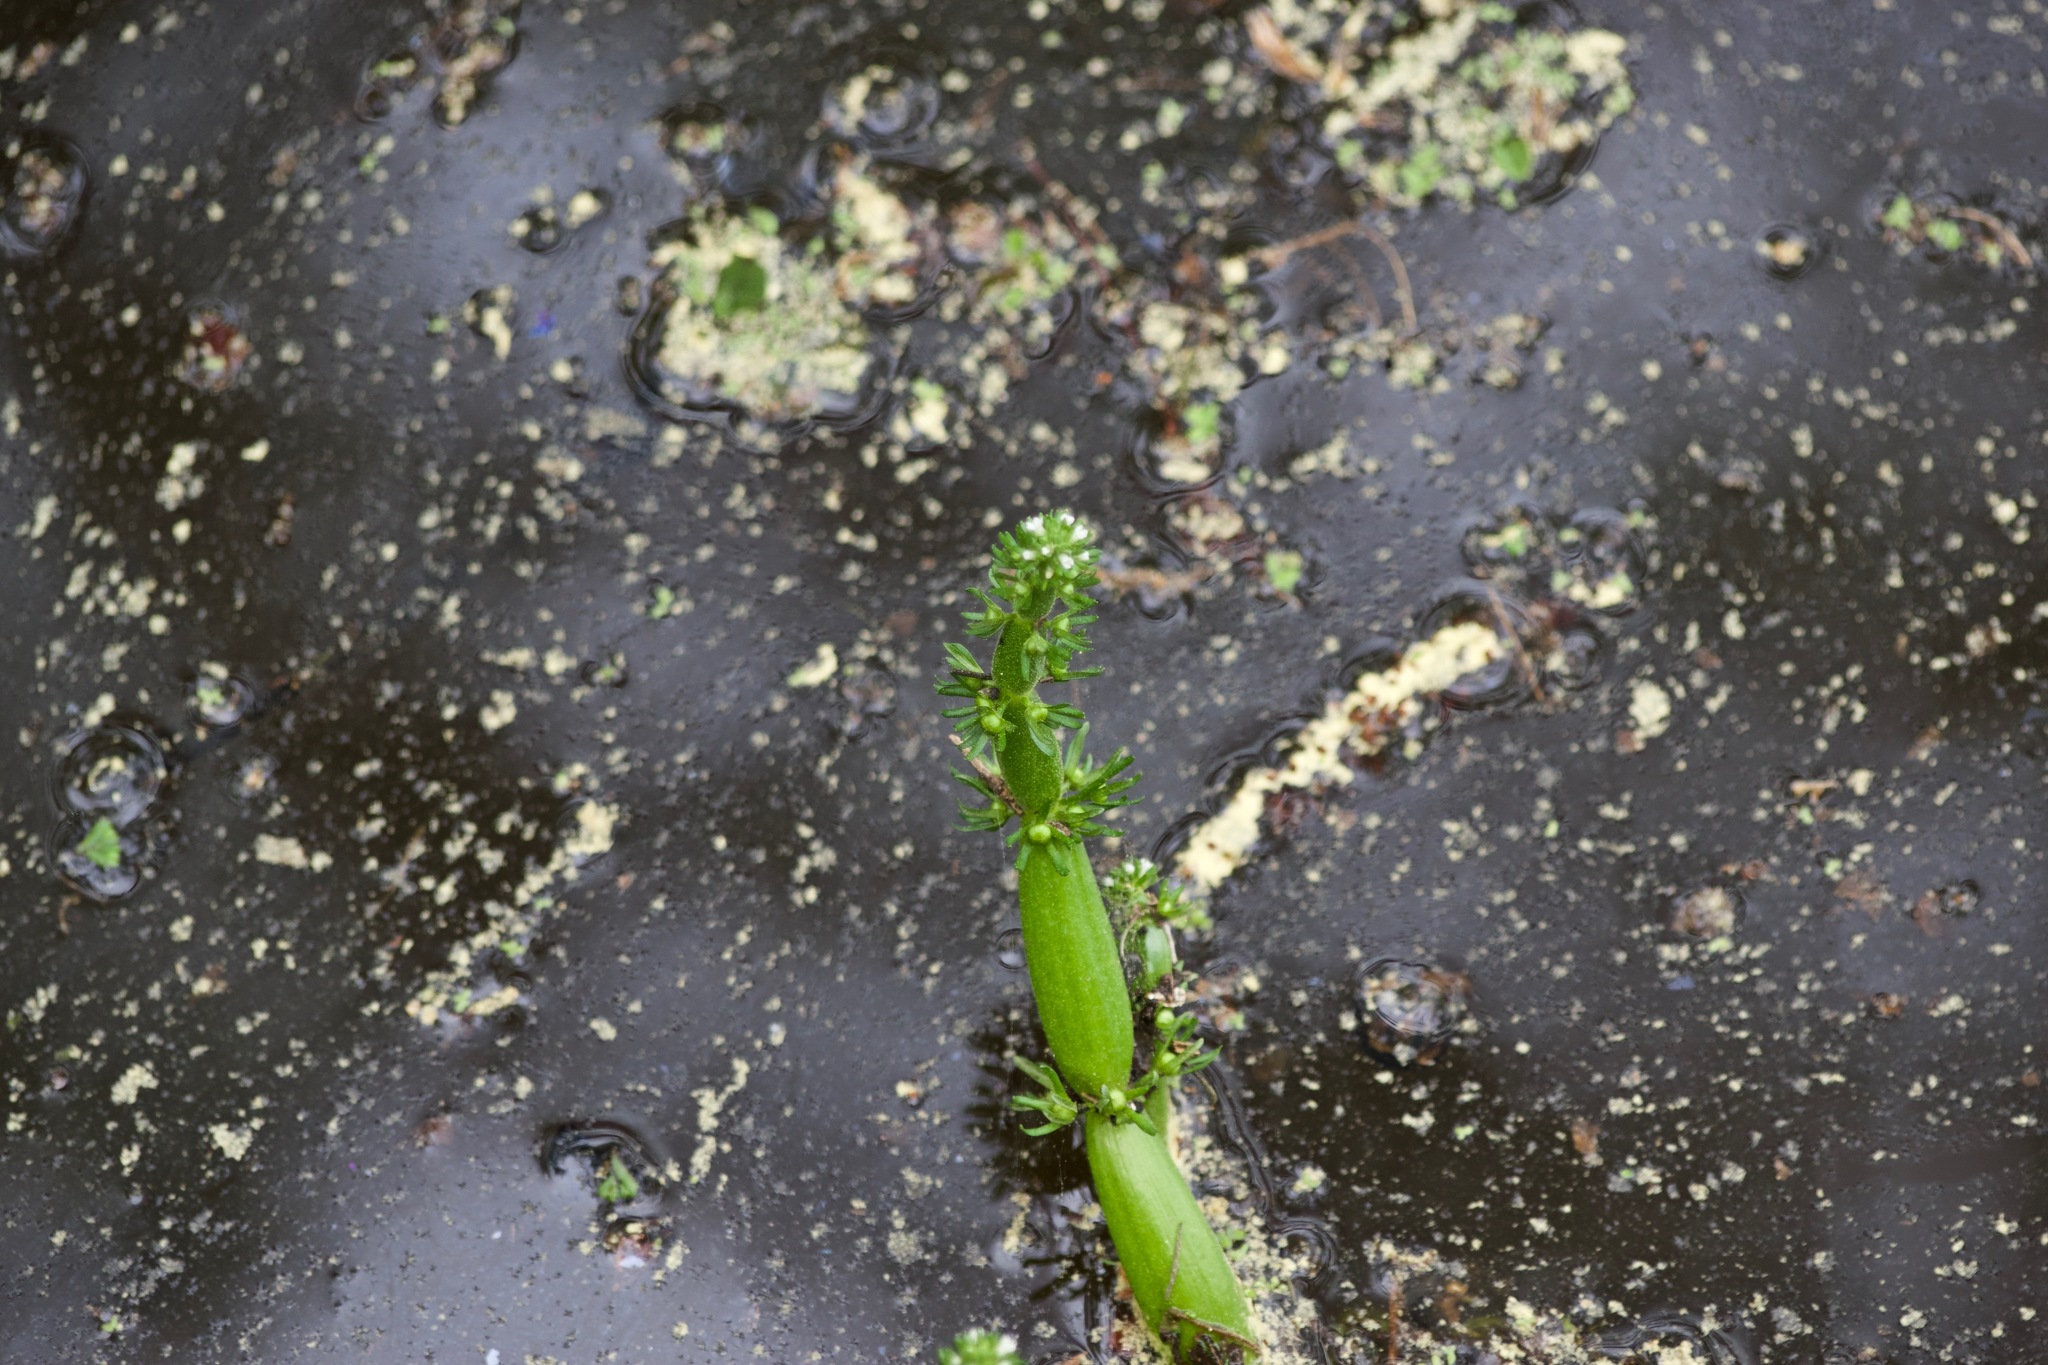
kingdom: Plantae
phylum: Tracheophyta
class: Magnoliopsida
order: Ericales
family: Primulaceae
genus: Hottonia
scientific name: Hottonia inflata
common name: American featherfoil
